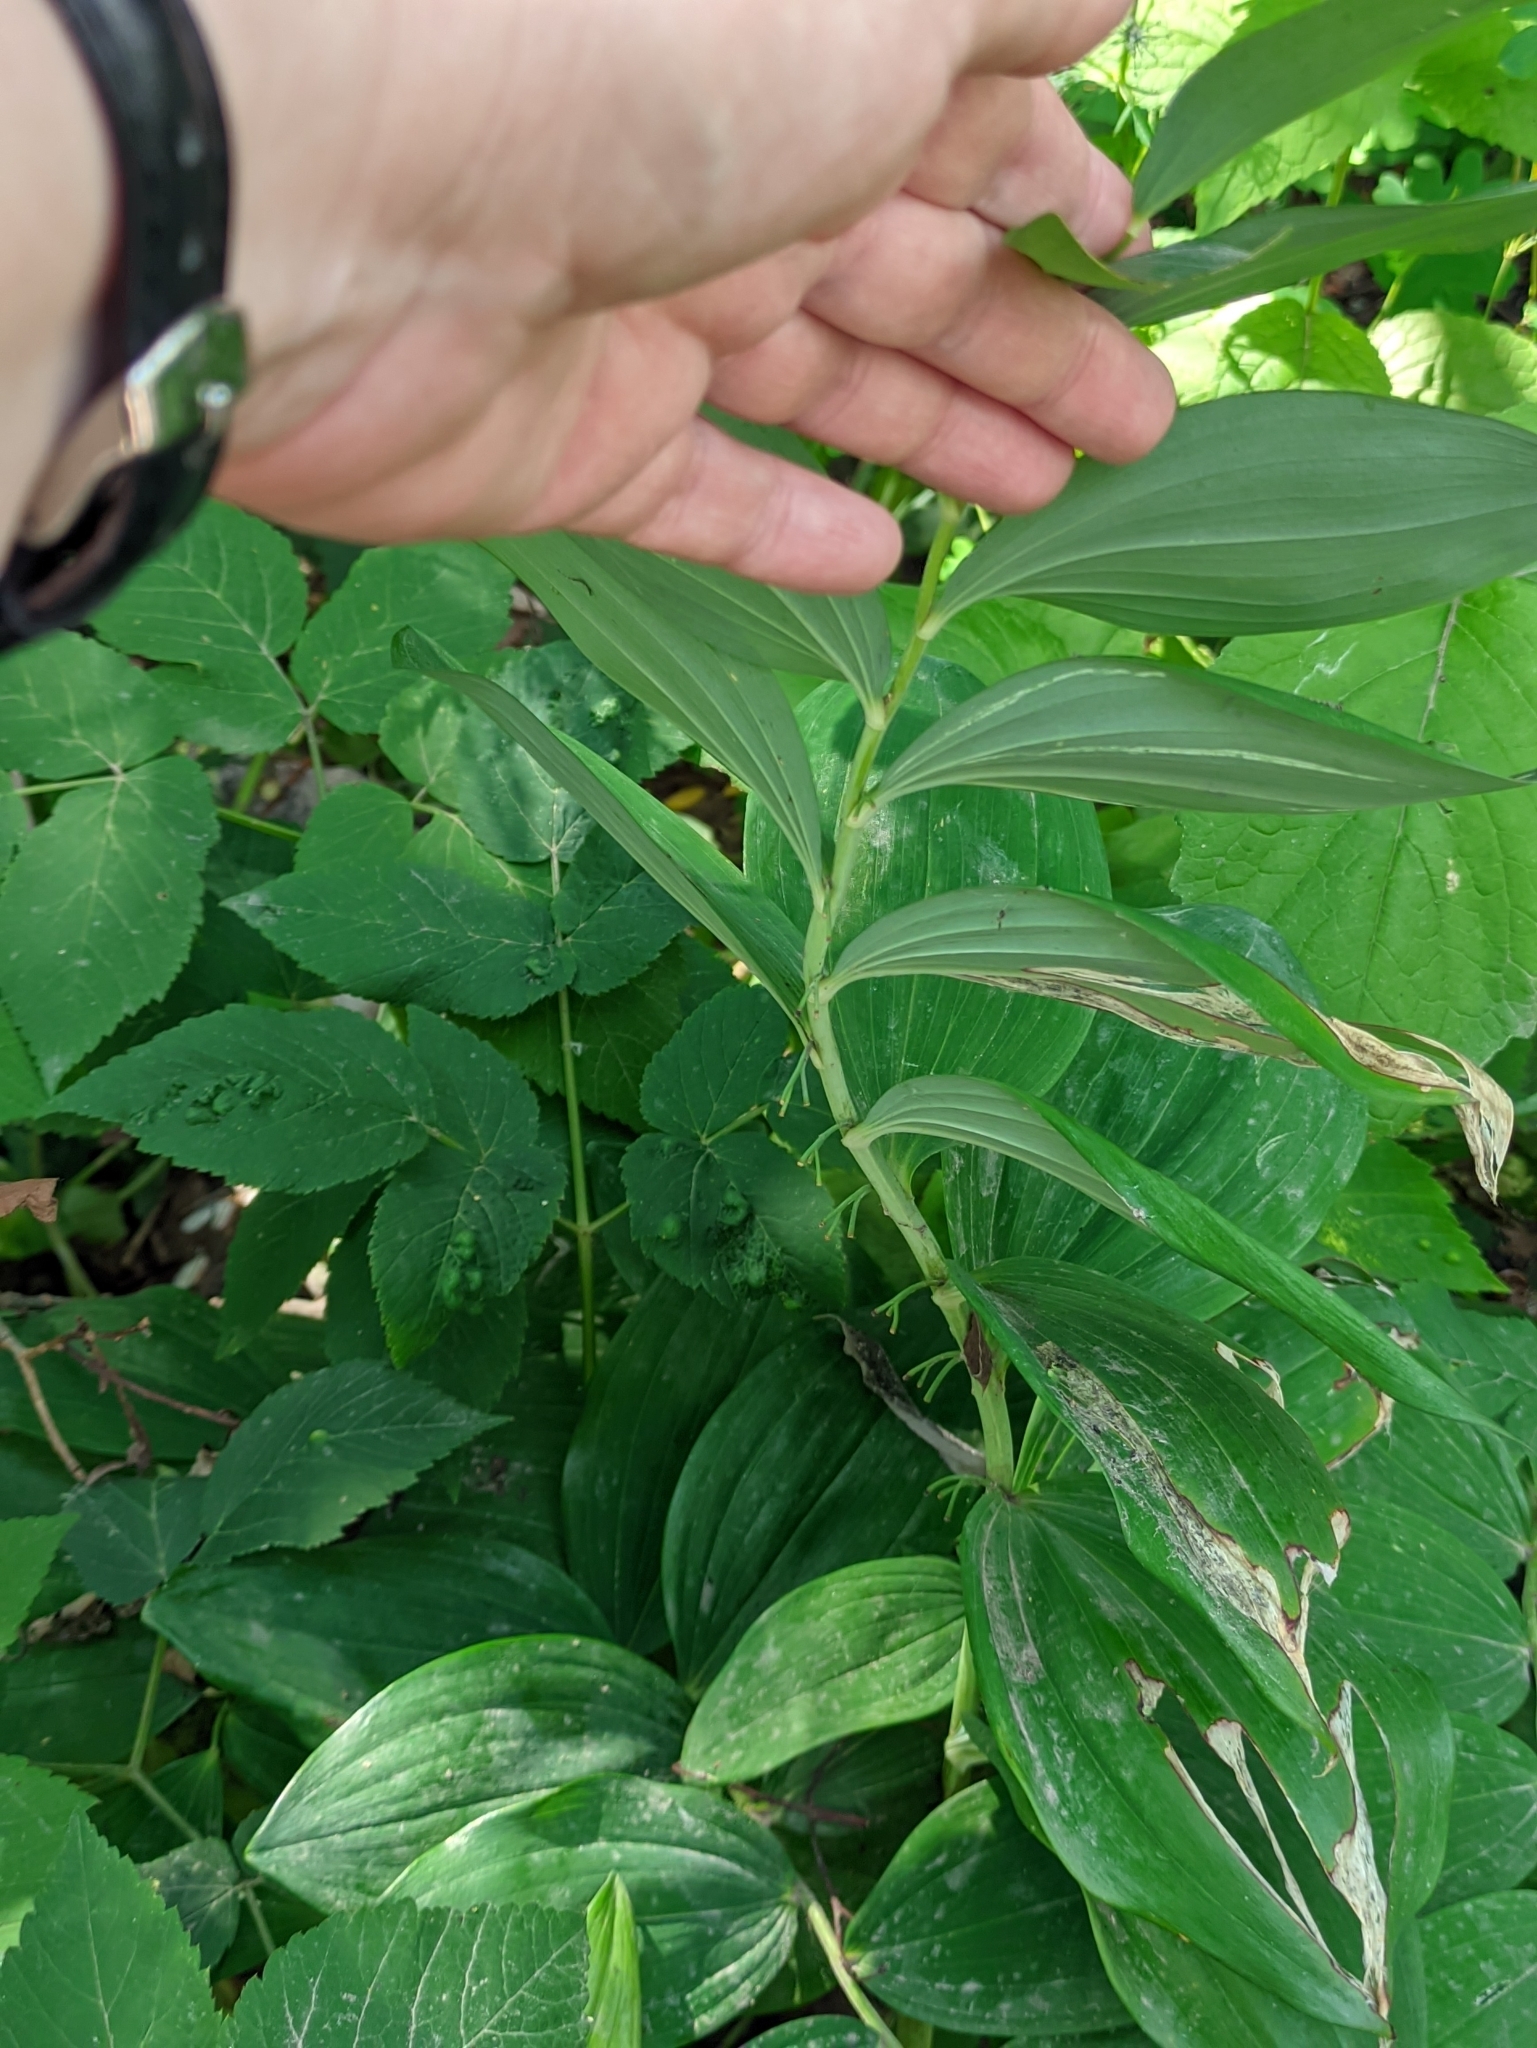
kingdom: Plantae
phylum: Tracheophyta
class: Liliopsida
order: Asparagales
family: Asparagaceae
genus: Polygonatum
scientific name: Polygonatum hybridum
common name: Garden solomon's-seal
